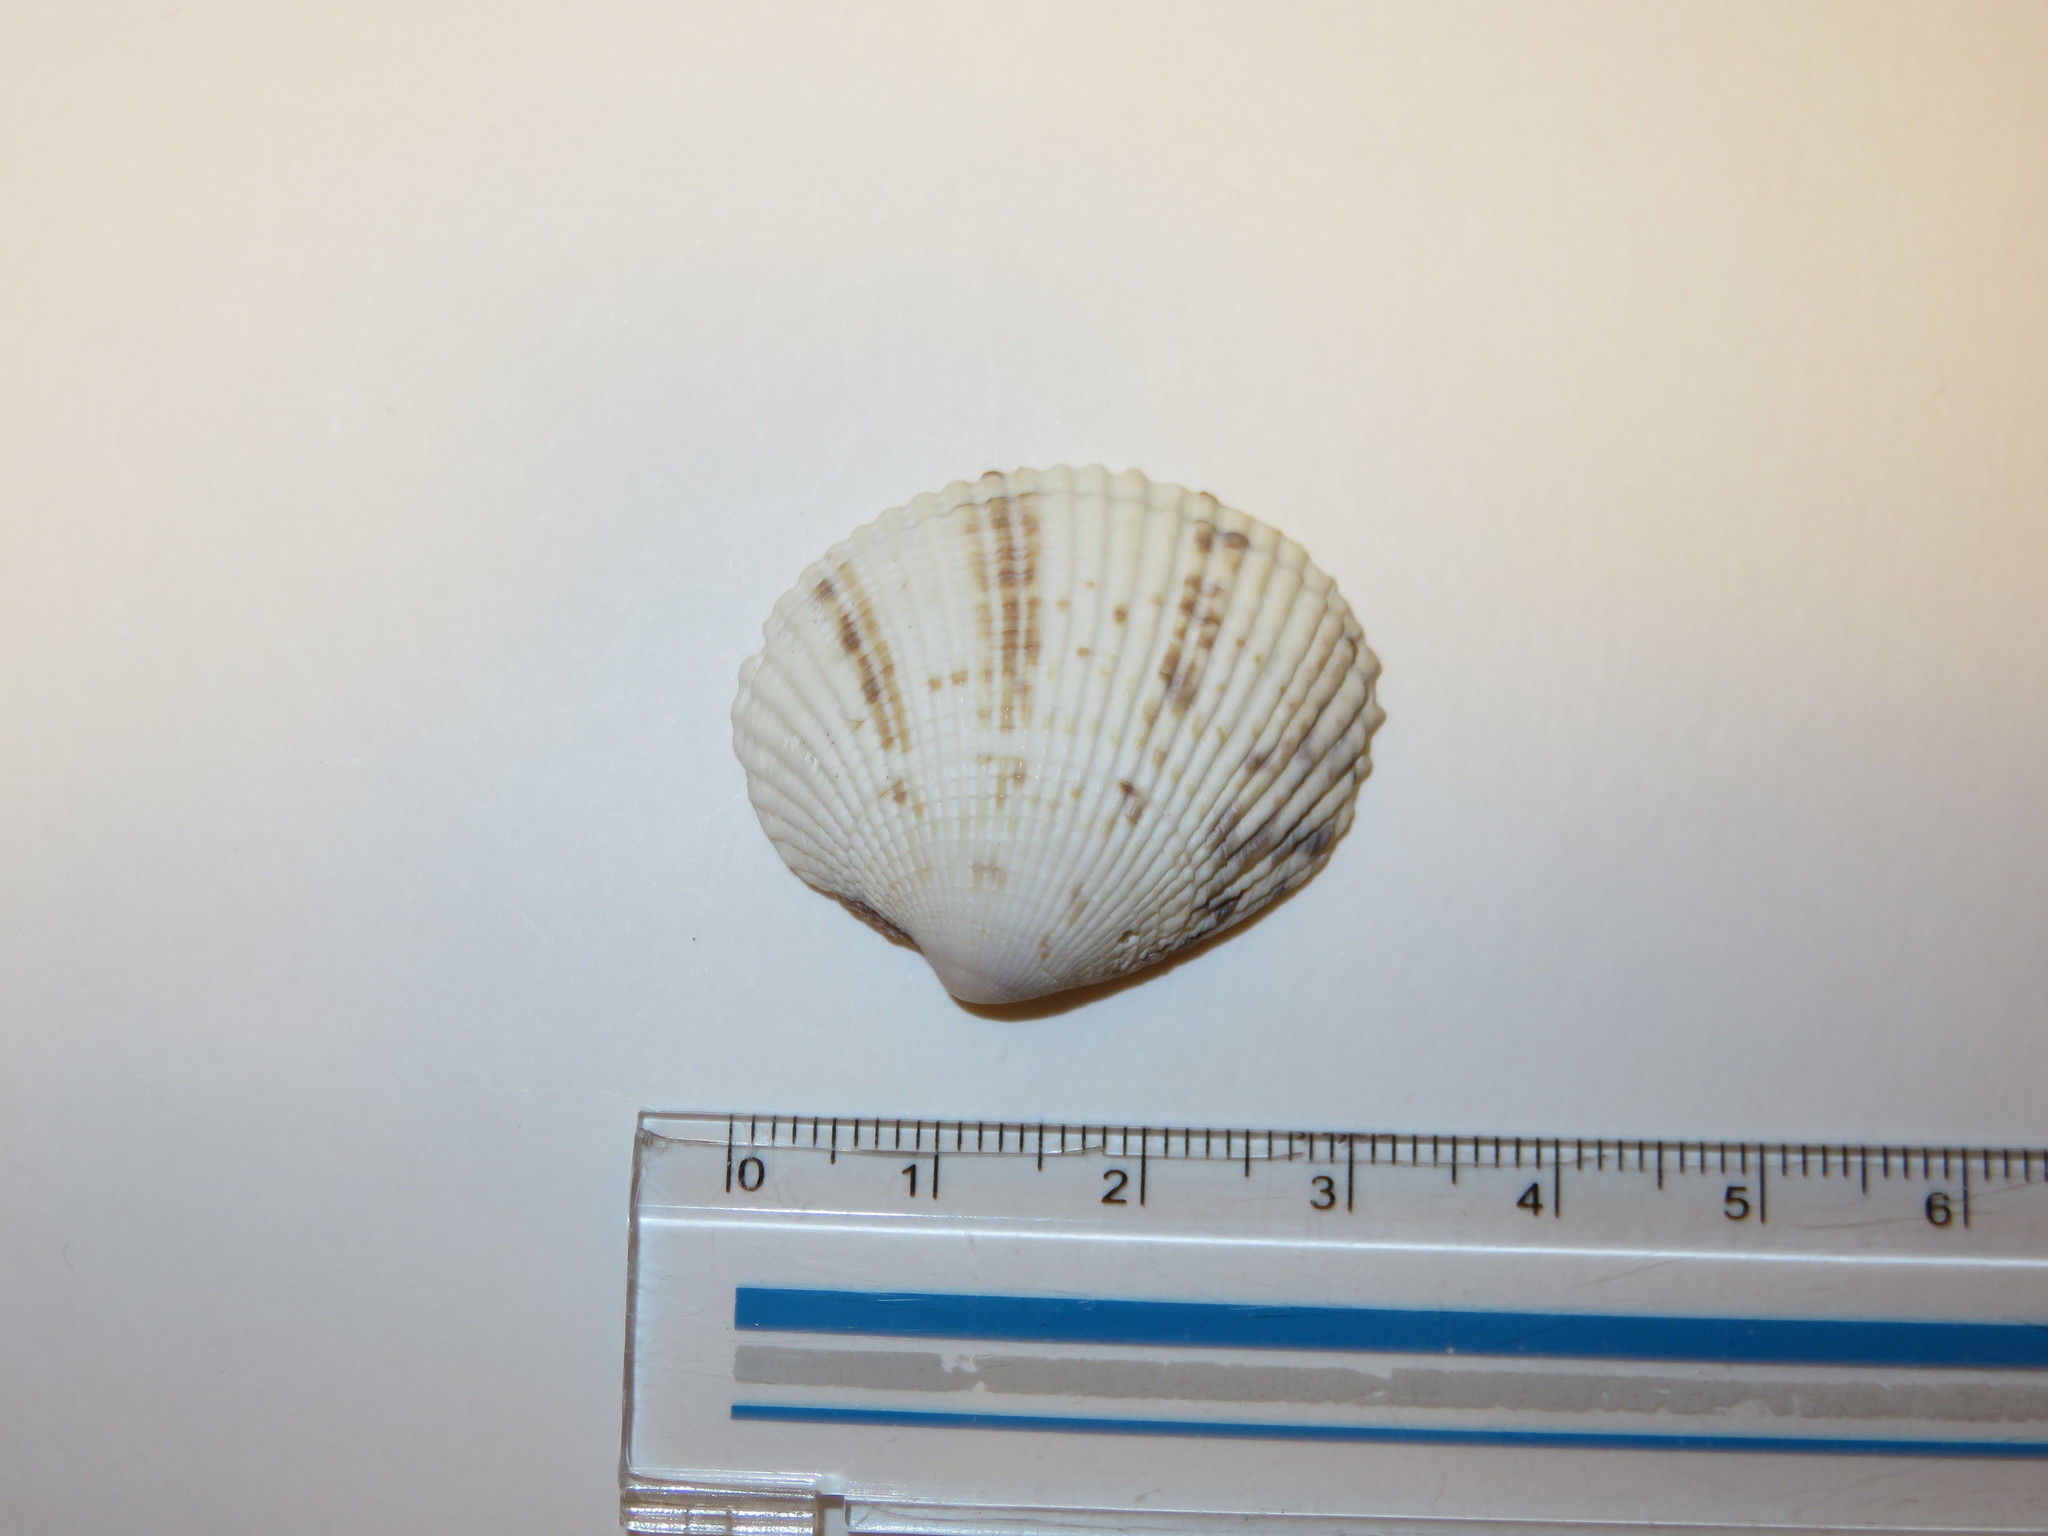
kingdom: Animalia
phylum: Mollusca
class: Bivalvia
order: Venerida
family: Veneridae
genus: Leukoma
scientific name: Leukoma jedoensis
